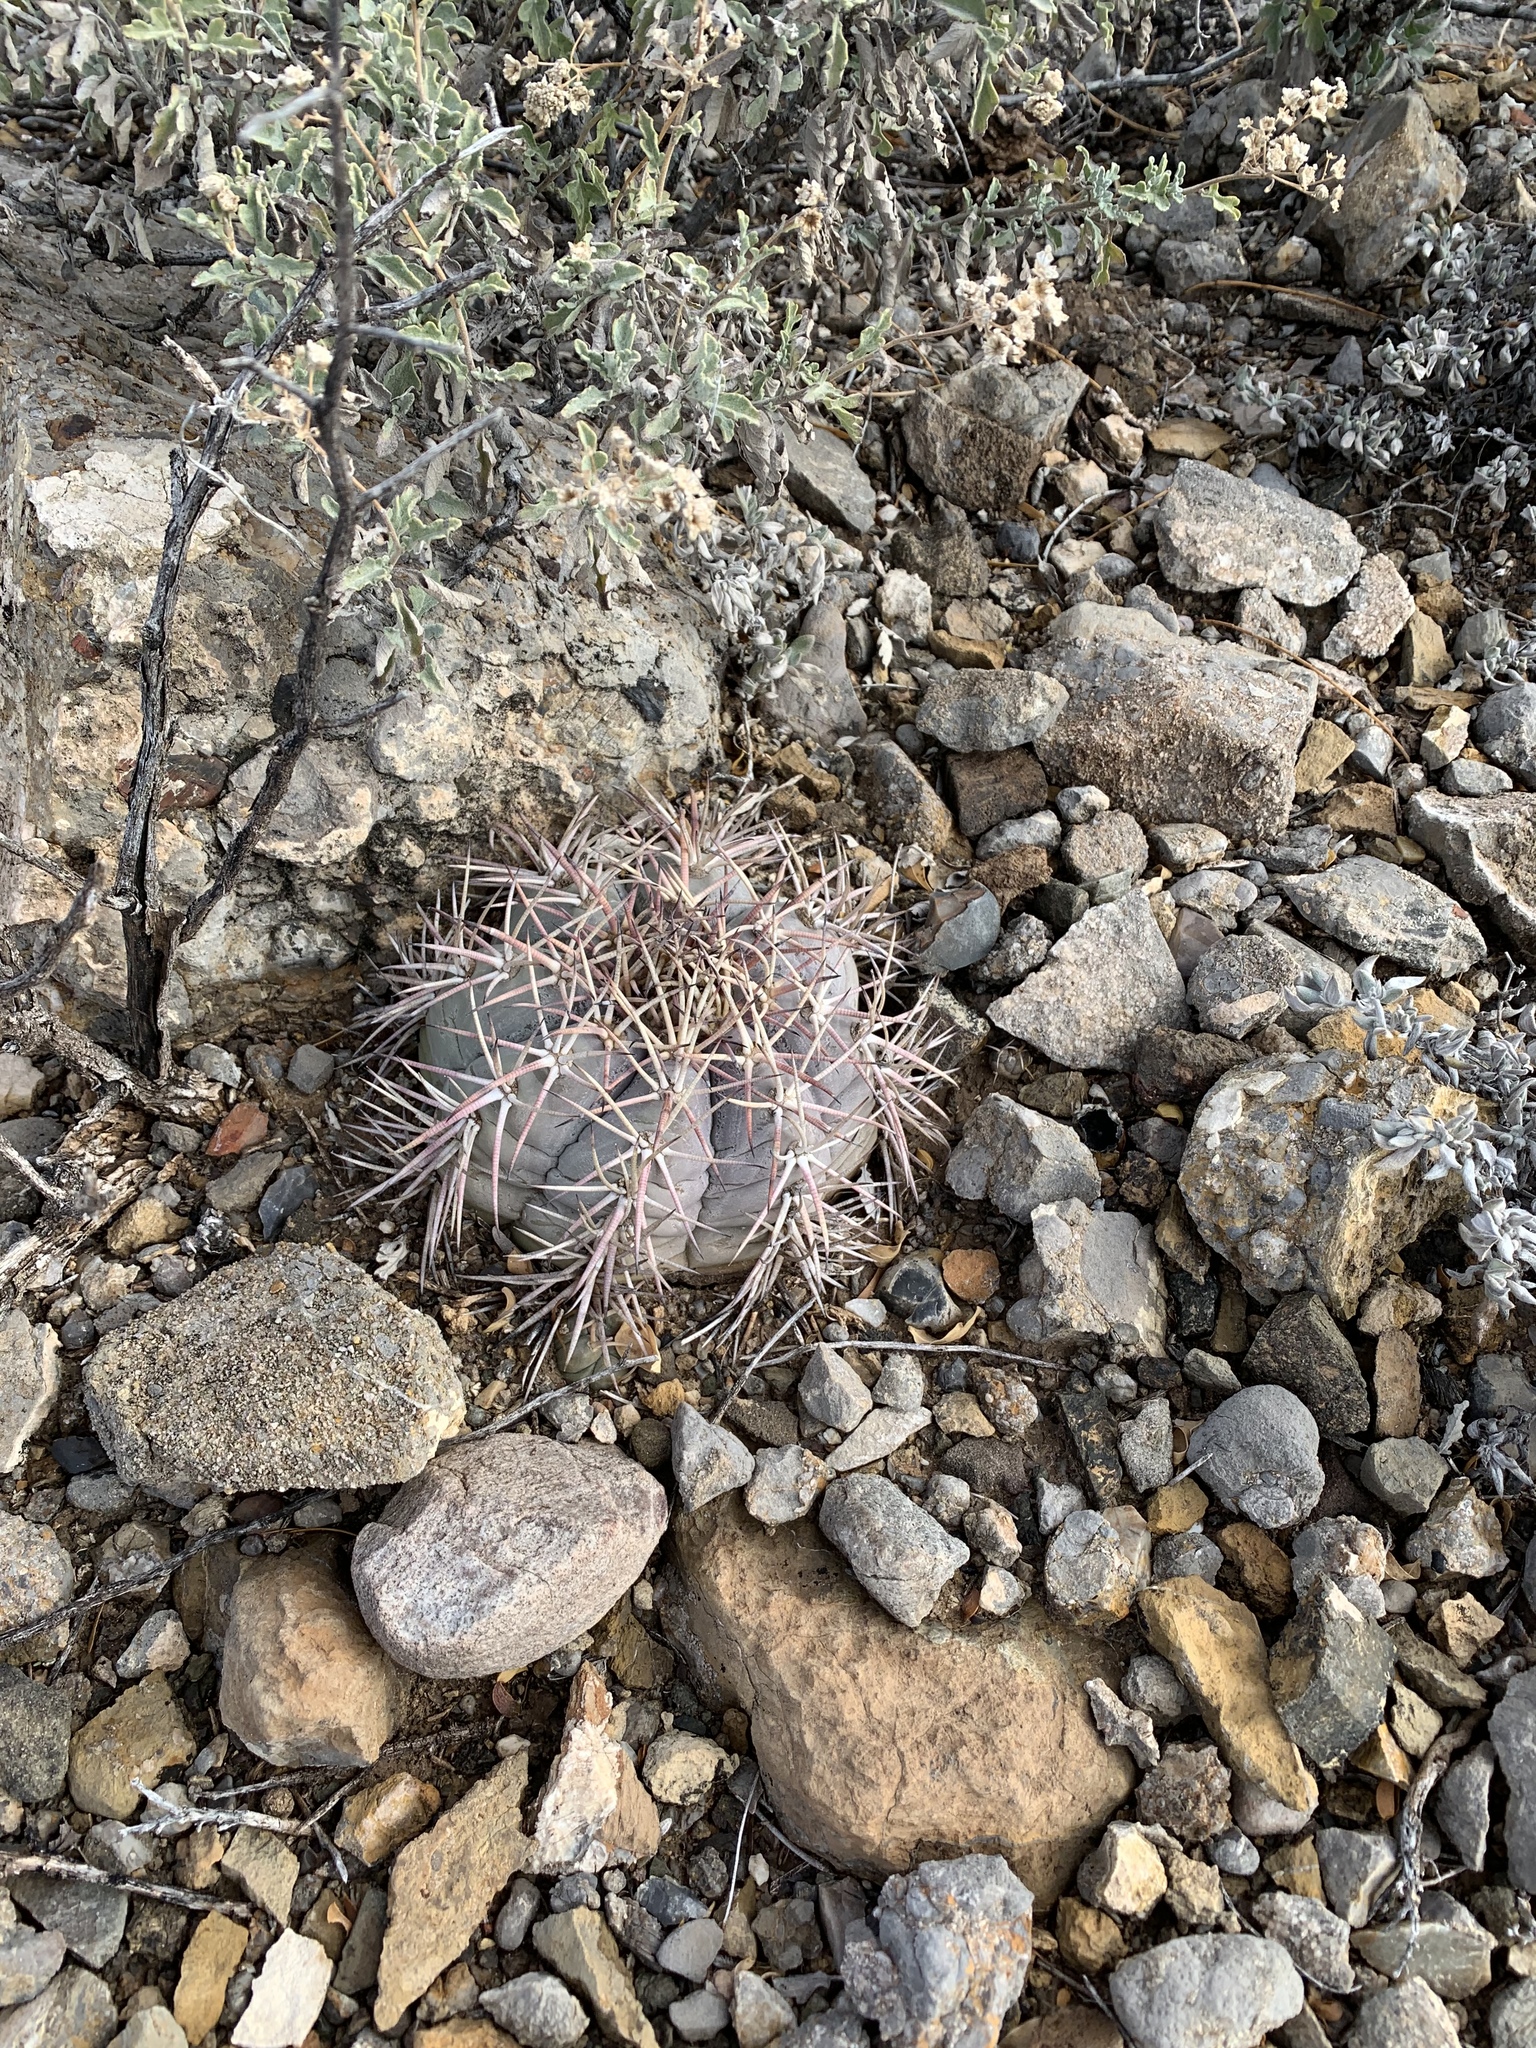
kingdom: Plantae
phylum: Tracheophyta
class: Magnoliopsida
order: Caryophyllales
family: Cactaceae
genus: Echinocactus
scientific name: Echinocactus horizonthalonius
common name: Devilshead
